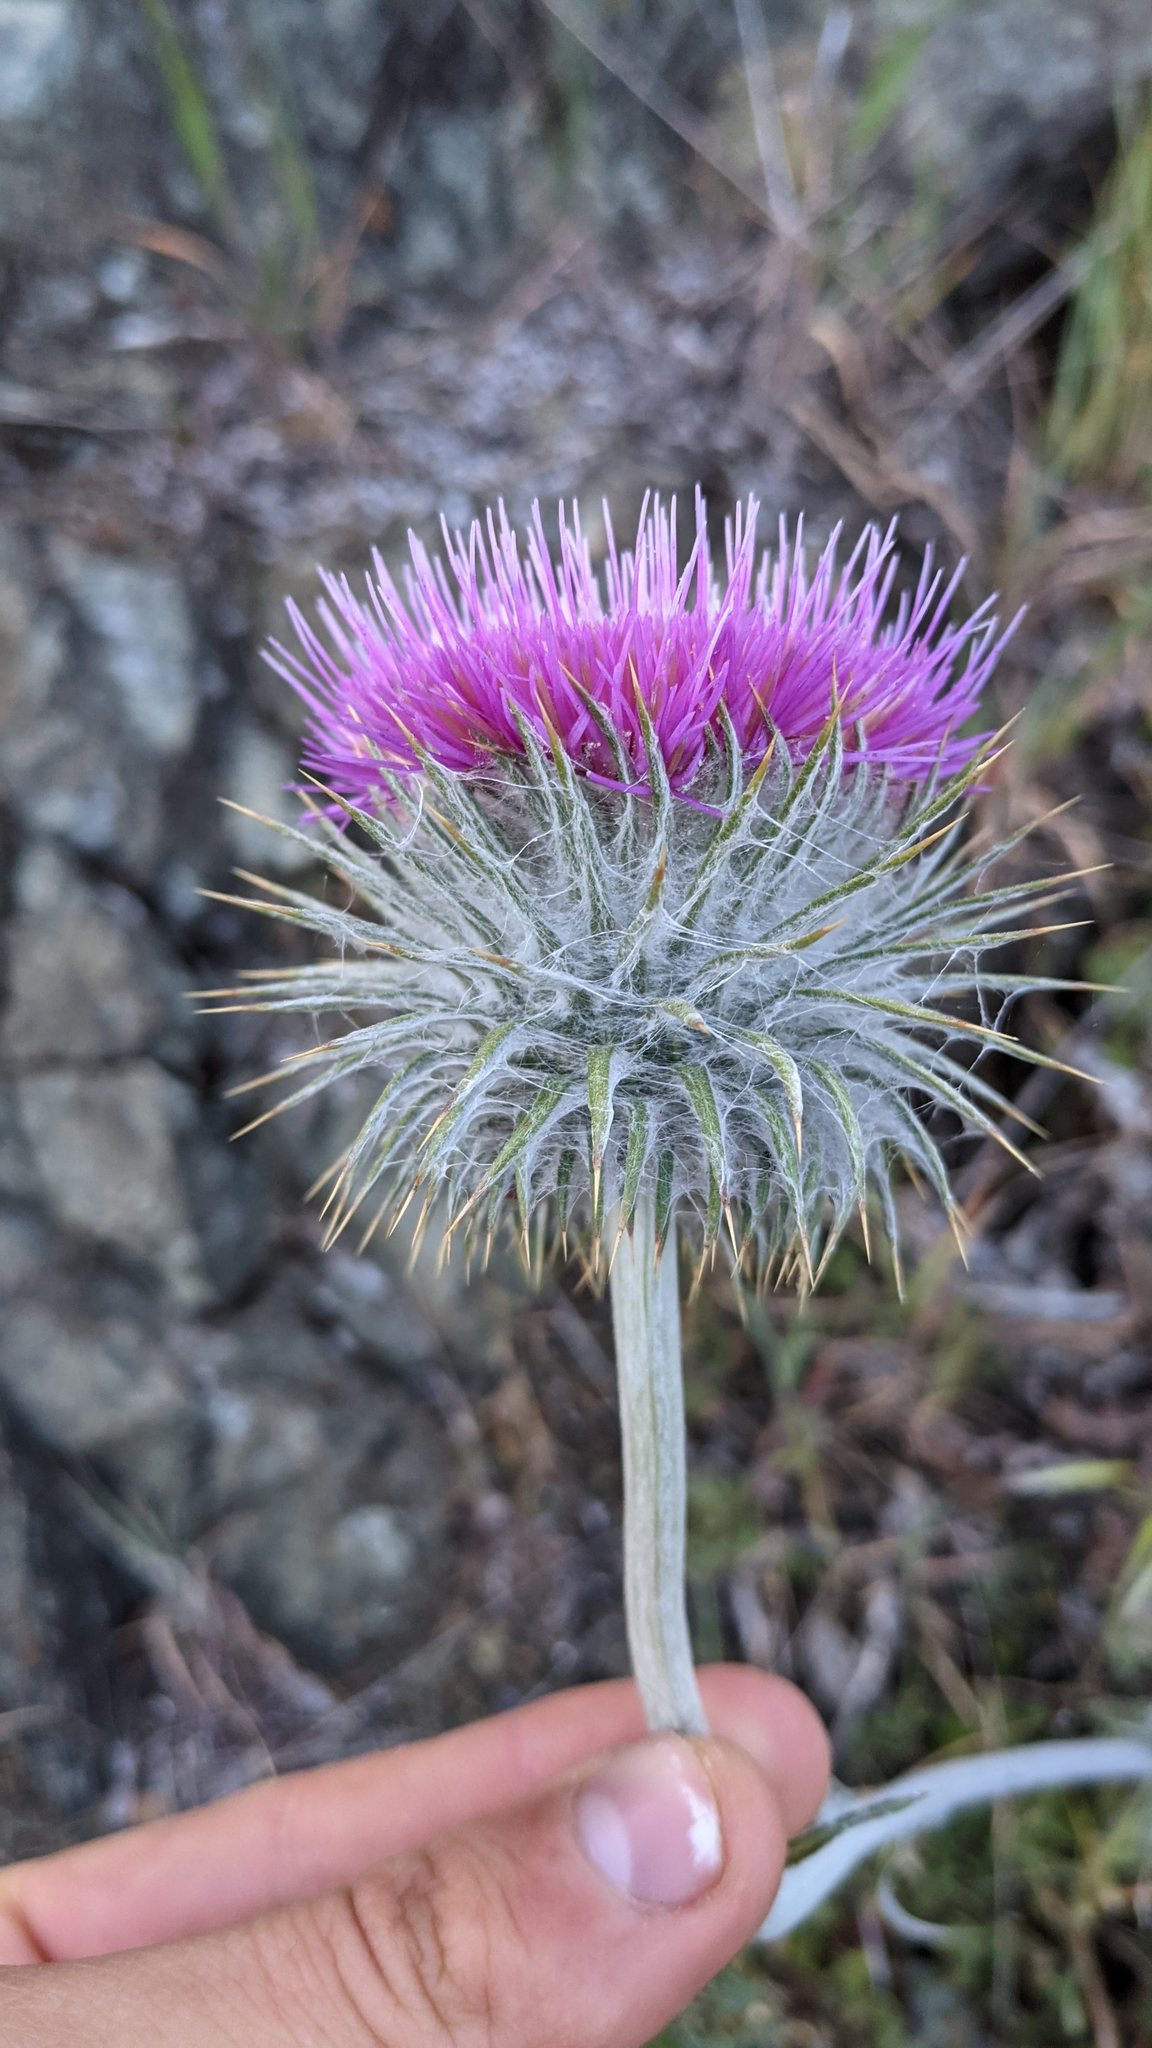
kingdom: Plantae
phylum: Tracheophyta
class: Magnoliopsida
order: Asterales
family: Asteraceae
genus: Cirsium
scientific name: Cirsium occidentale
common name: Western thistle
